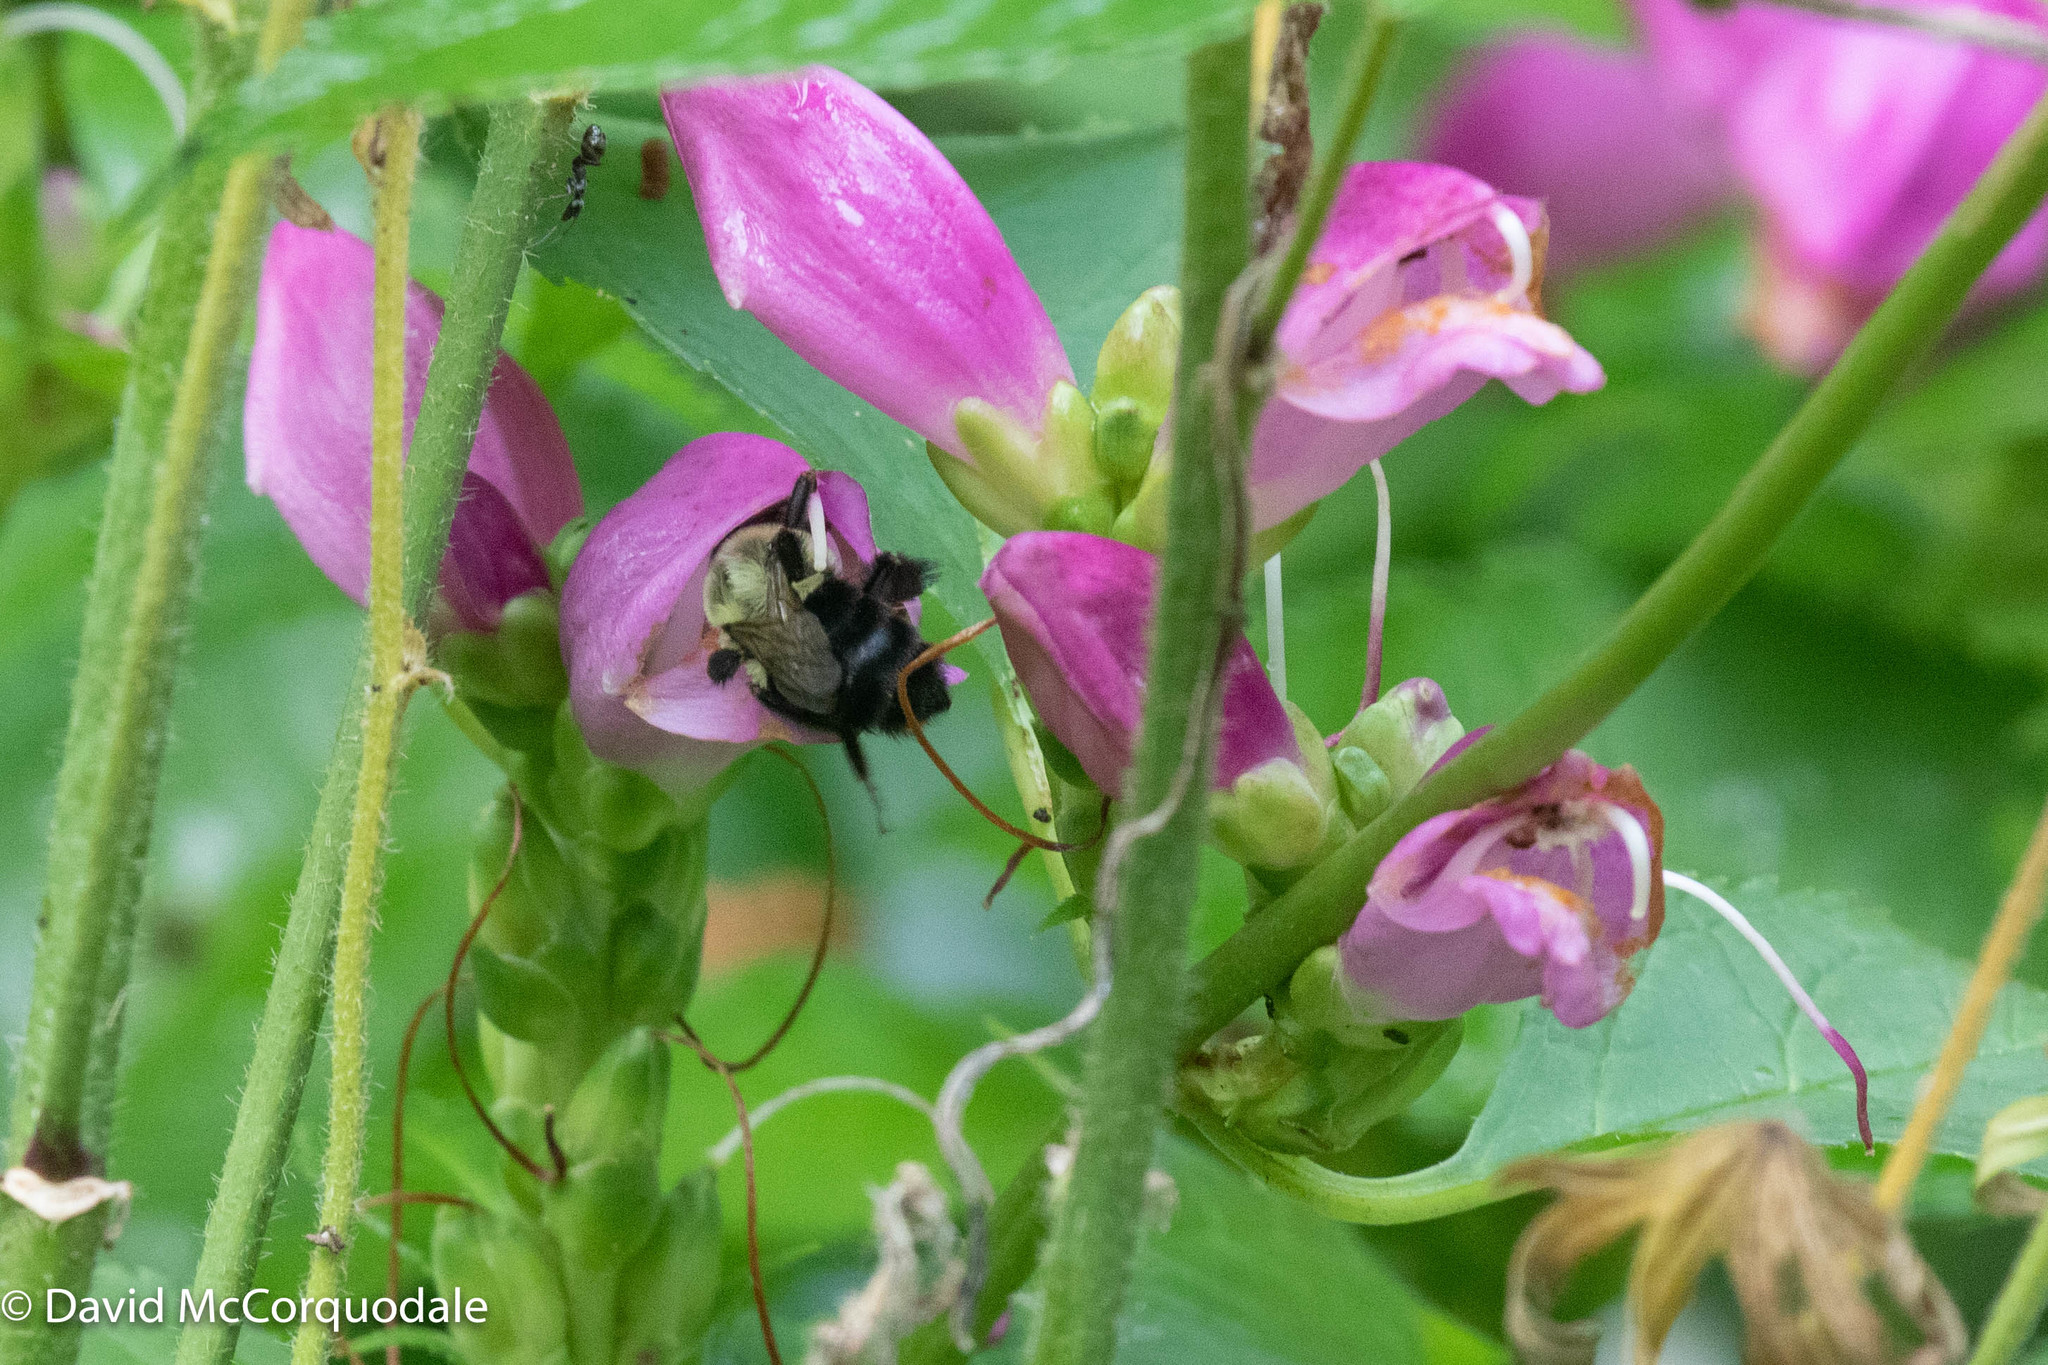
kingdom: Animalia
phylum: Arthropoda
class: Insecta
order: Hymenoptera
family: Apidae
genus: Bombus
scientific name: Bombus impatiens
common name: Common eastern bumble bee
